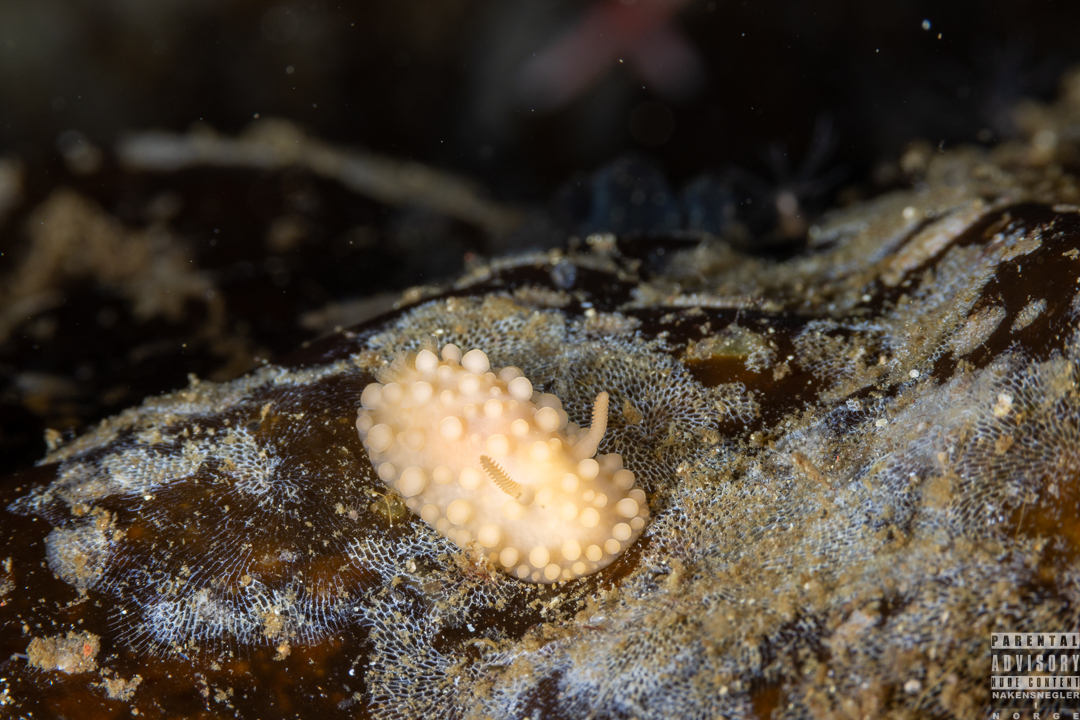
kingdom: Animalia
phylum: Mollusca
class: Gastropoda
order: Nudibranchia
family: Onchidorididae
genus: Adalaria
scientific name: Adalaria loveni
